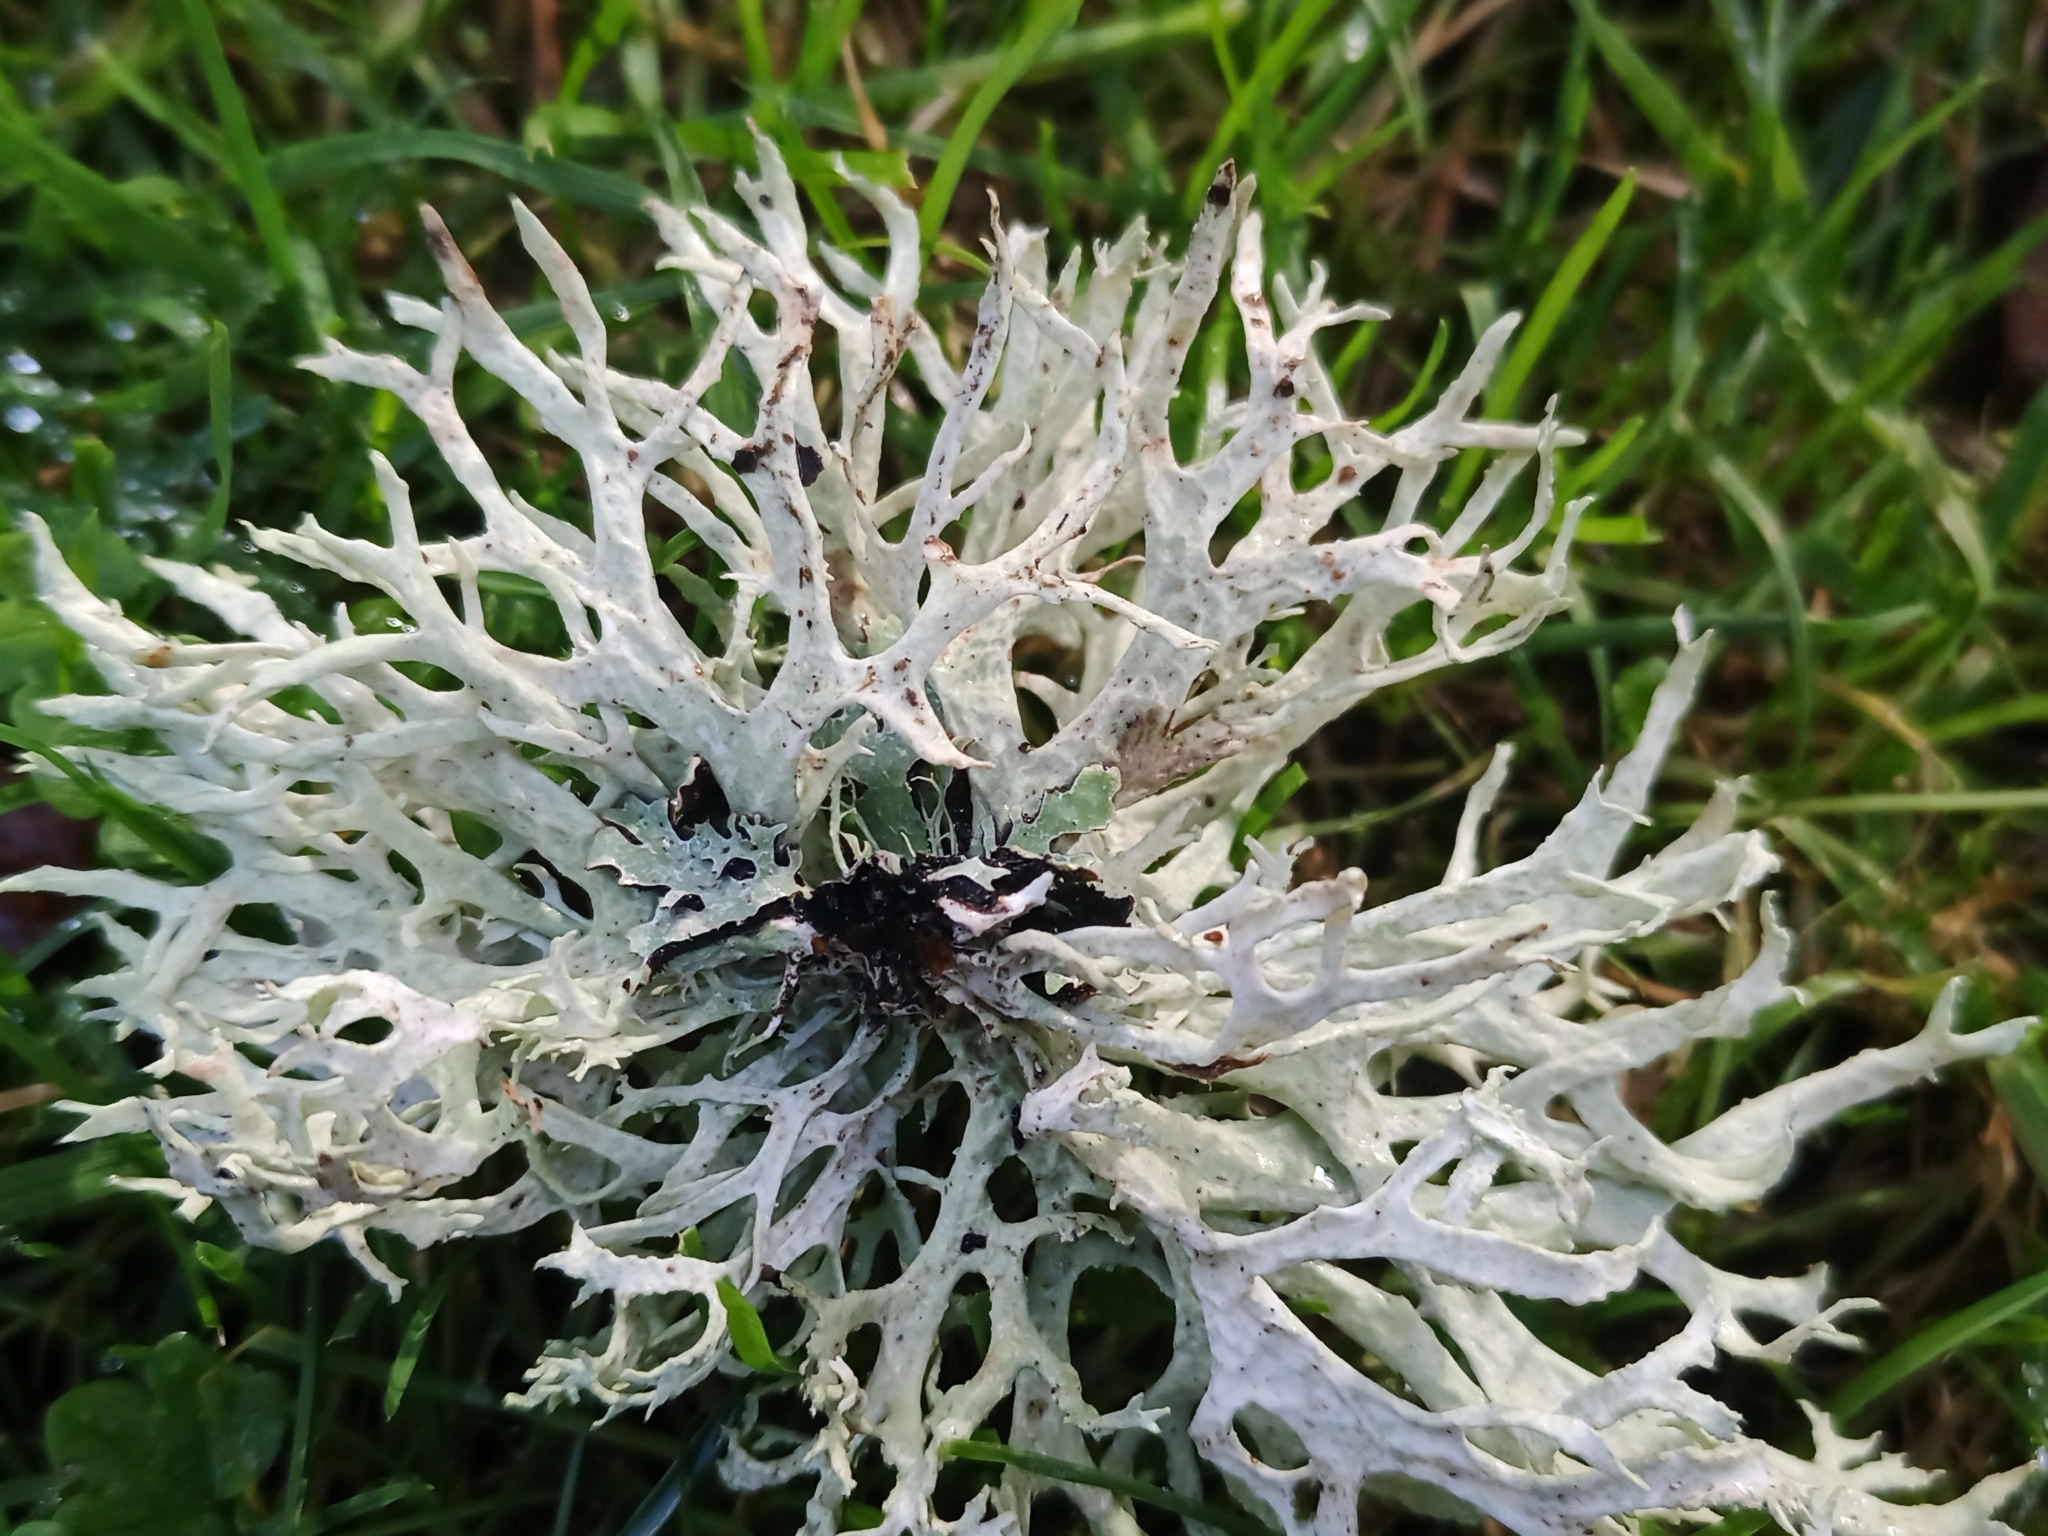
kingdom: Fungi
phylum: Ascomycota
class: Lecanoromycetes
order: Lecanorales
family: Parmeliaceae
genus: Evernia
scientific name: Evernia prunastri
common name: Oak moss
